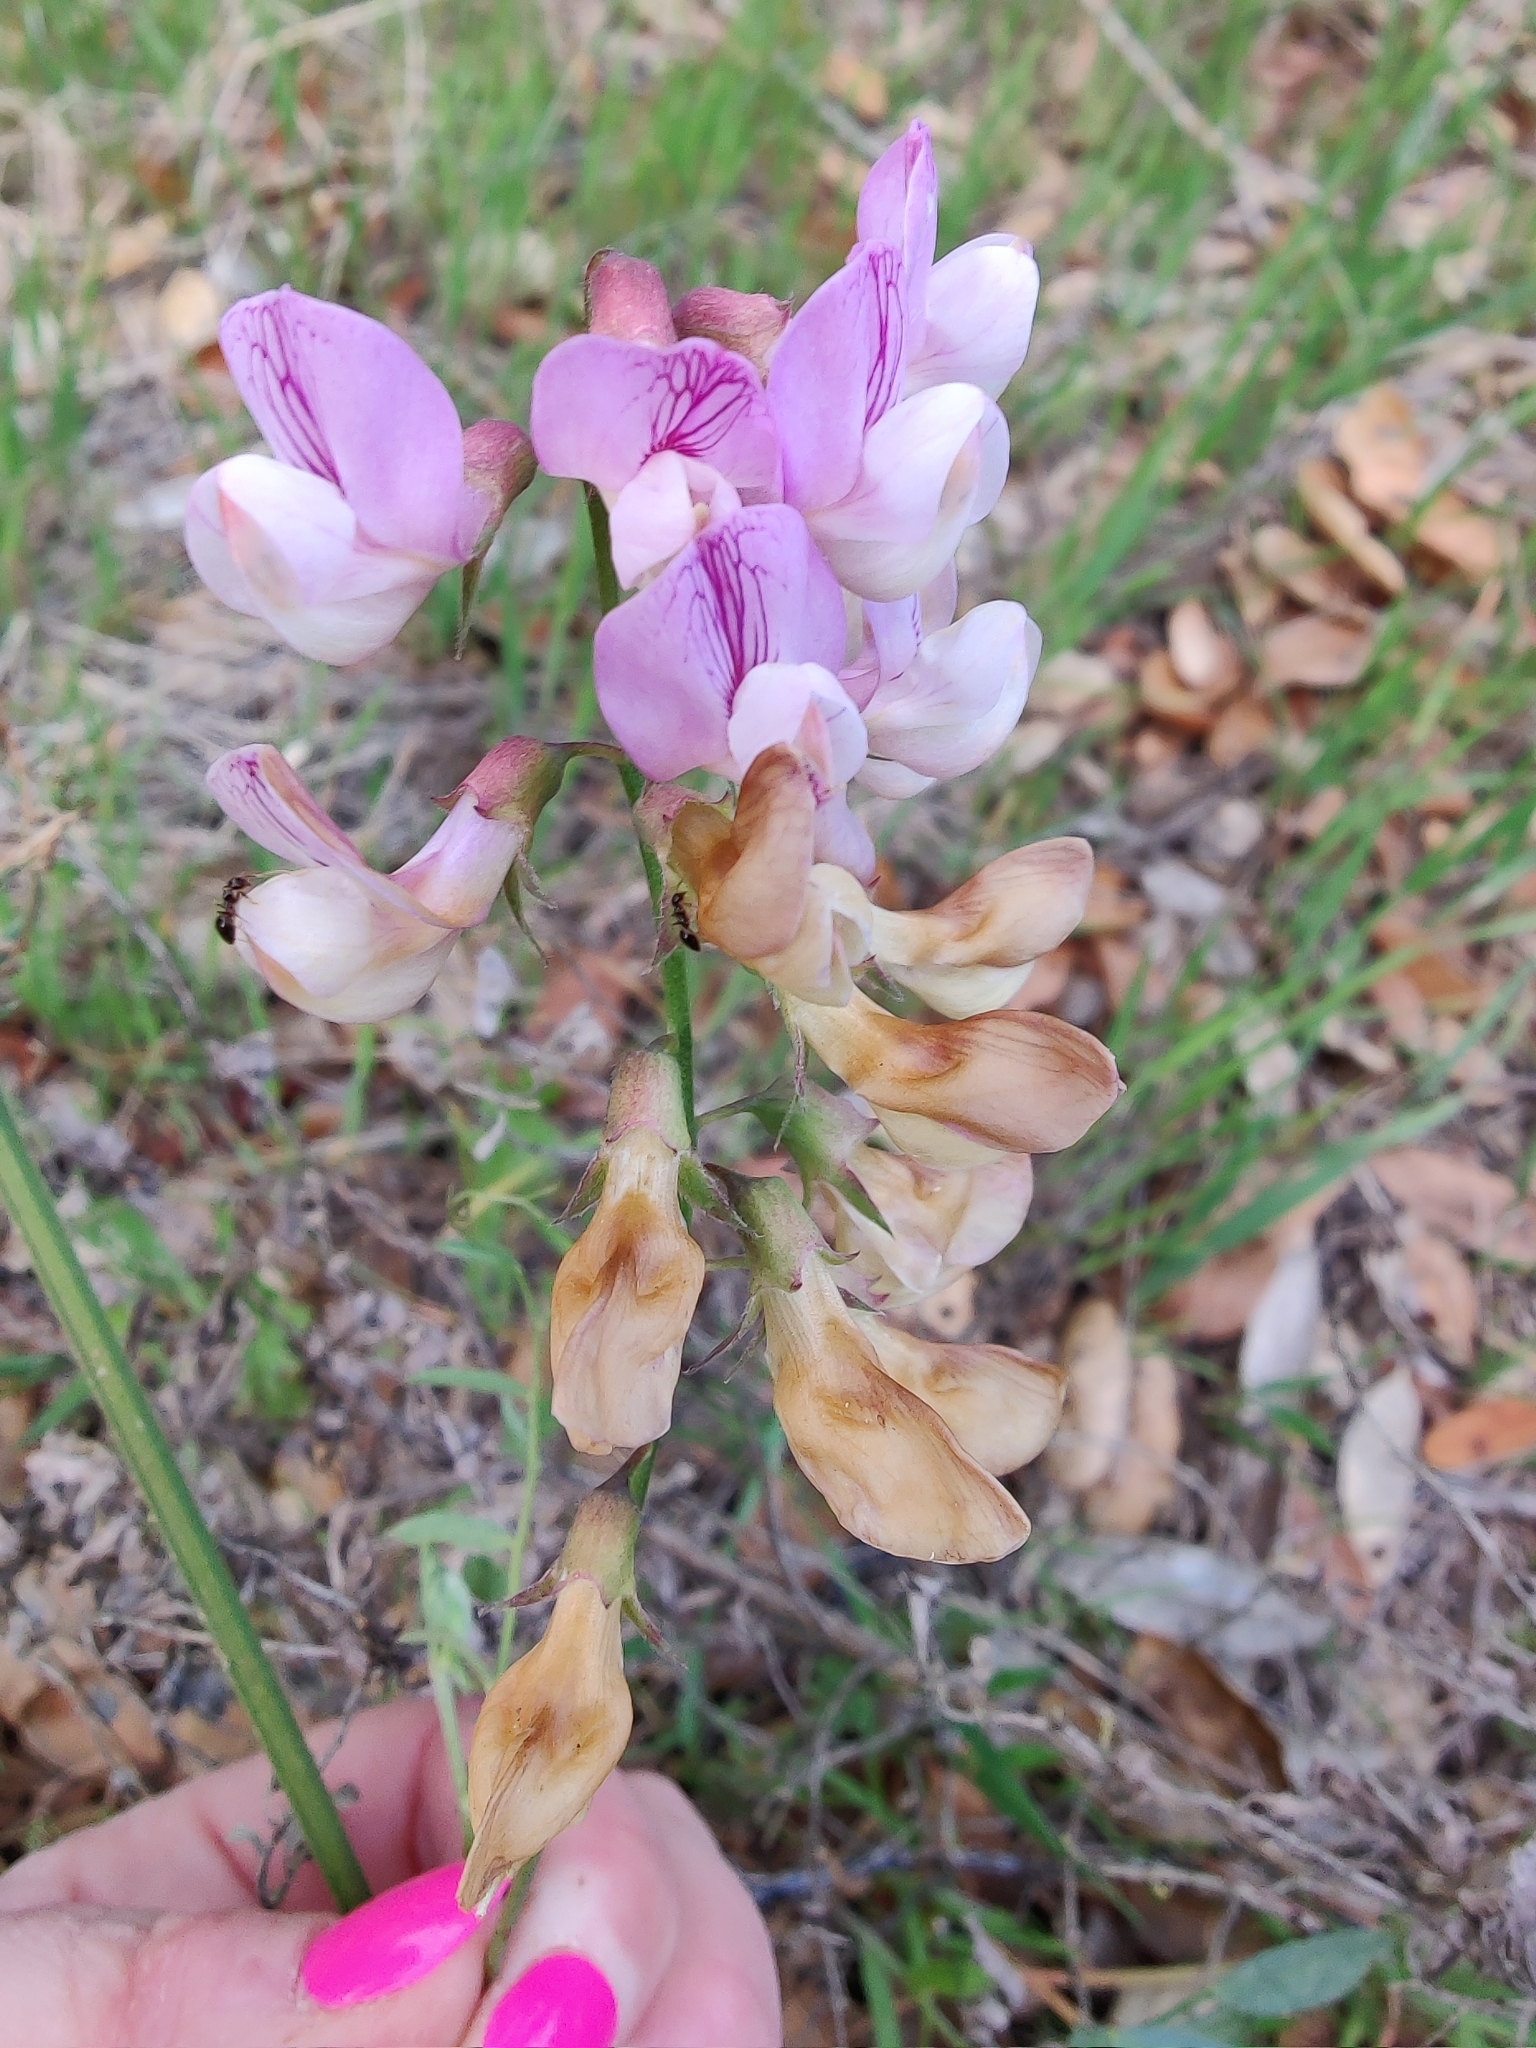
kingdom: Plantae
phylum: Tracheophyta
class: Magnoliopsida
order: Fabales
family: Fabaceae
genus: Lathyrus
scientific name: Lathyrus vestitus
